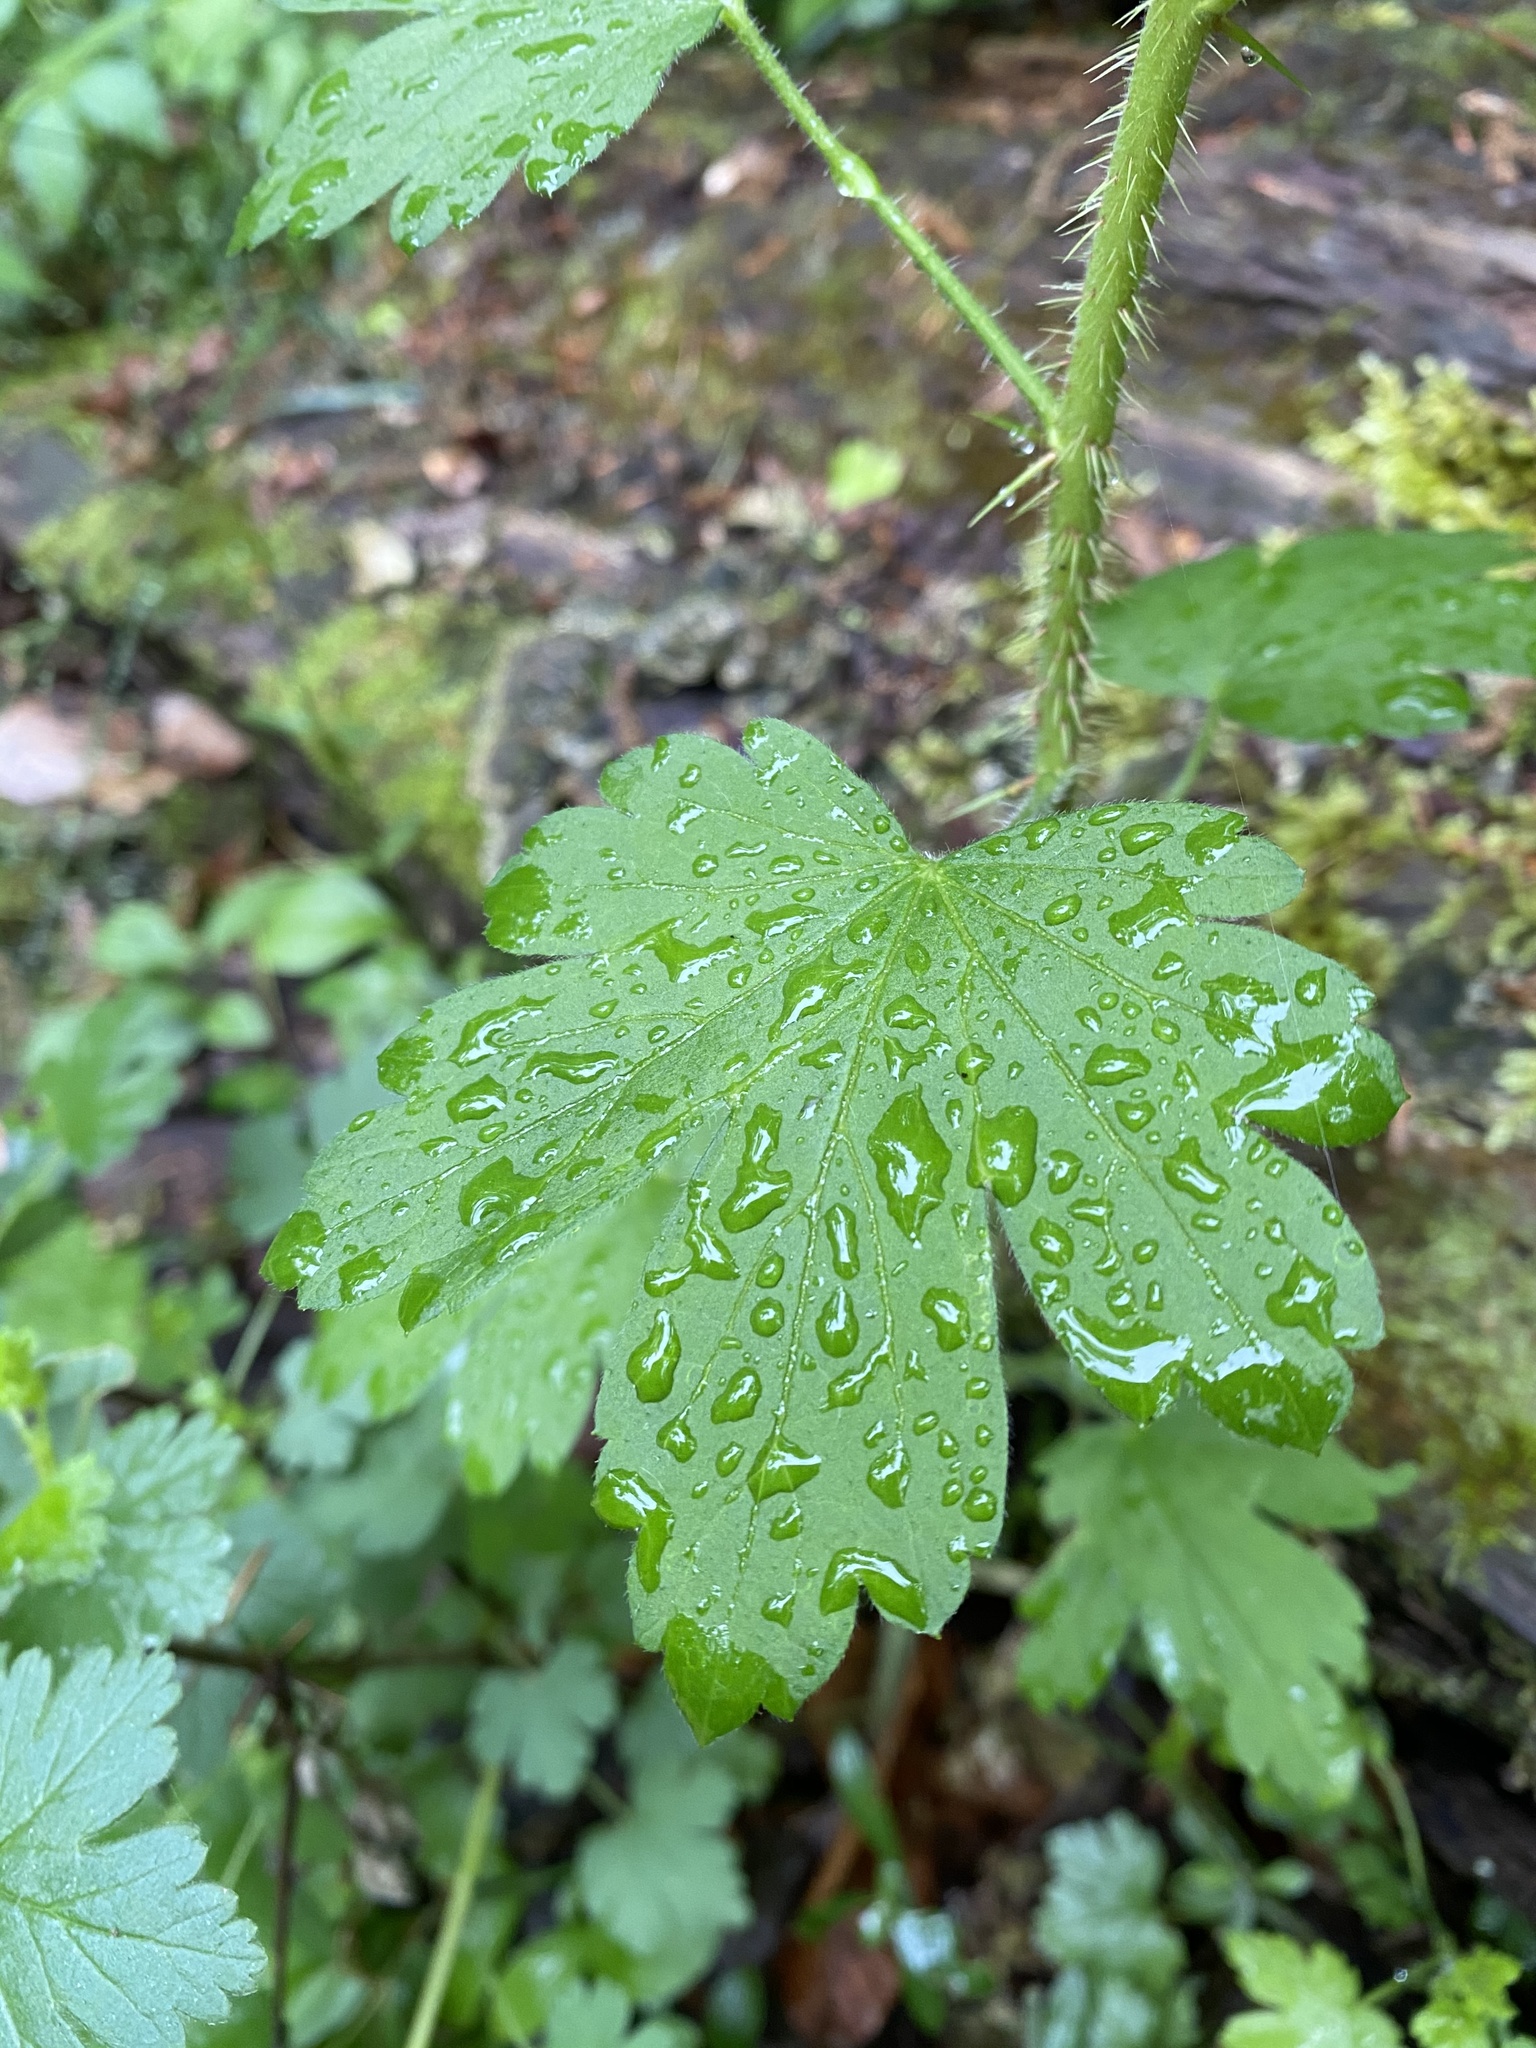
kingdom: Plantae
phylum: Tracheophyta
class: Magnoliopsida
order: Saxifragales
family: Grossulariaceae
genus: Ribes
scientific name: Ribes cynosbati
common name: American gooseberry
